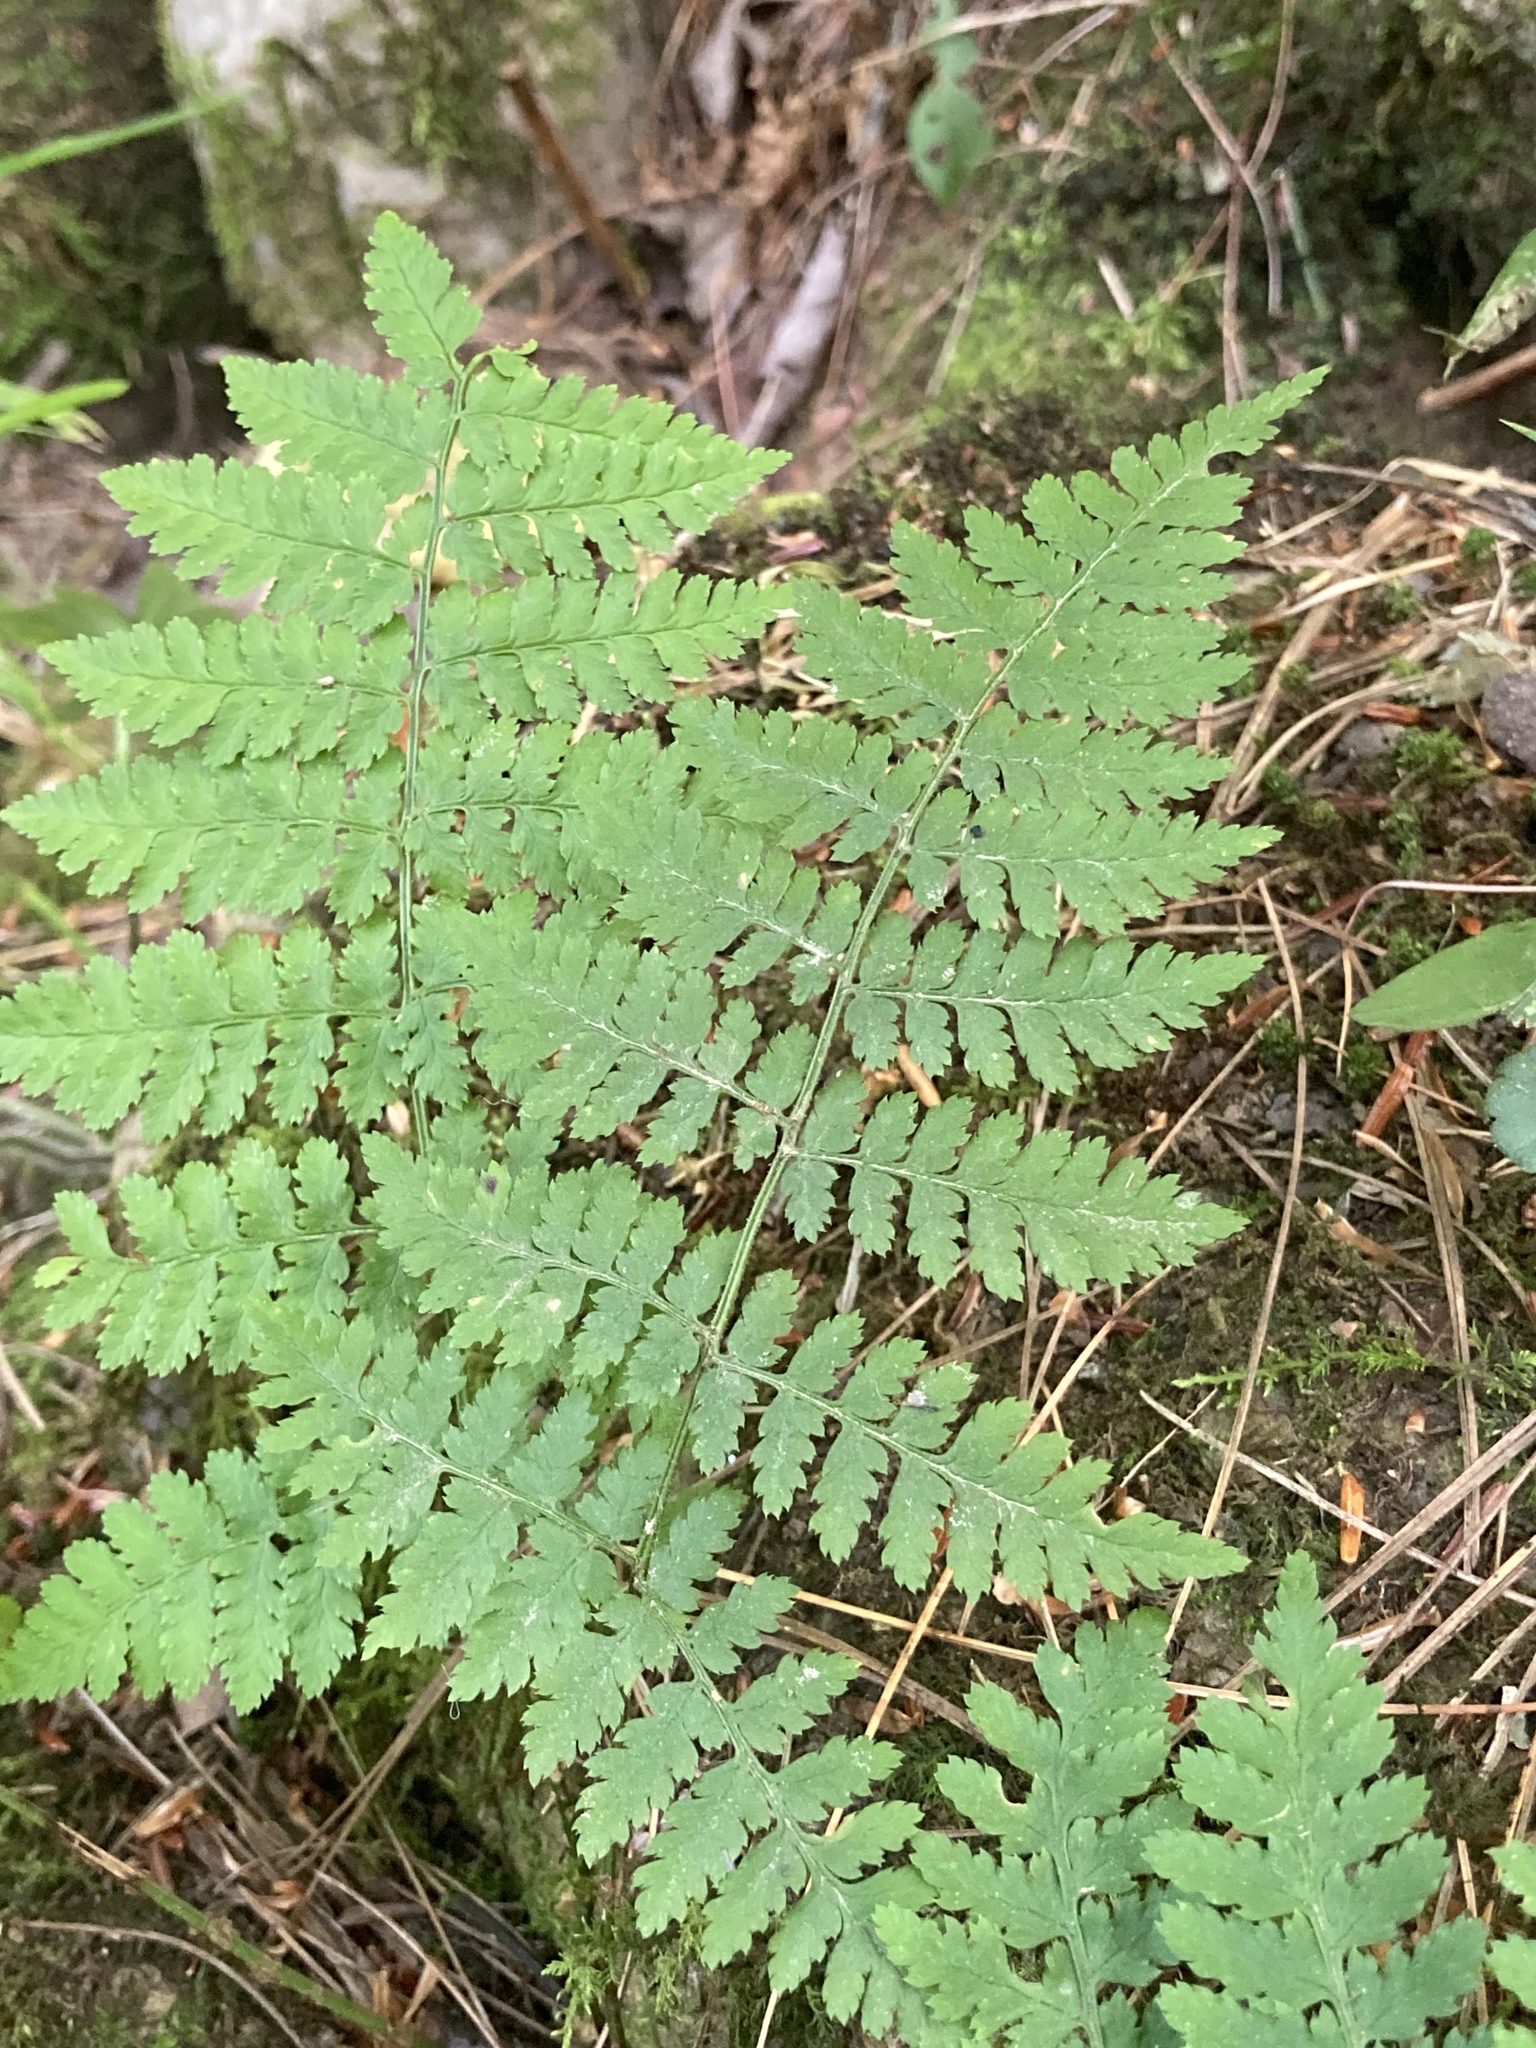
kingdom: Plantae
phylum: Tracheophyta
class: Polypodiopsida
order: Polypodiales
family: Dryopteridaceae
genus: Dryopteris
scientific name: Dryopteris intermedia
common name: Evergreen wood fern
